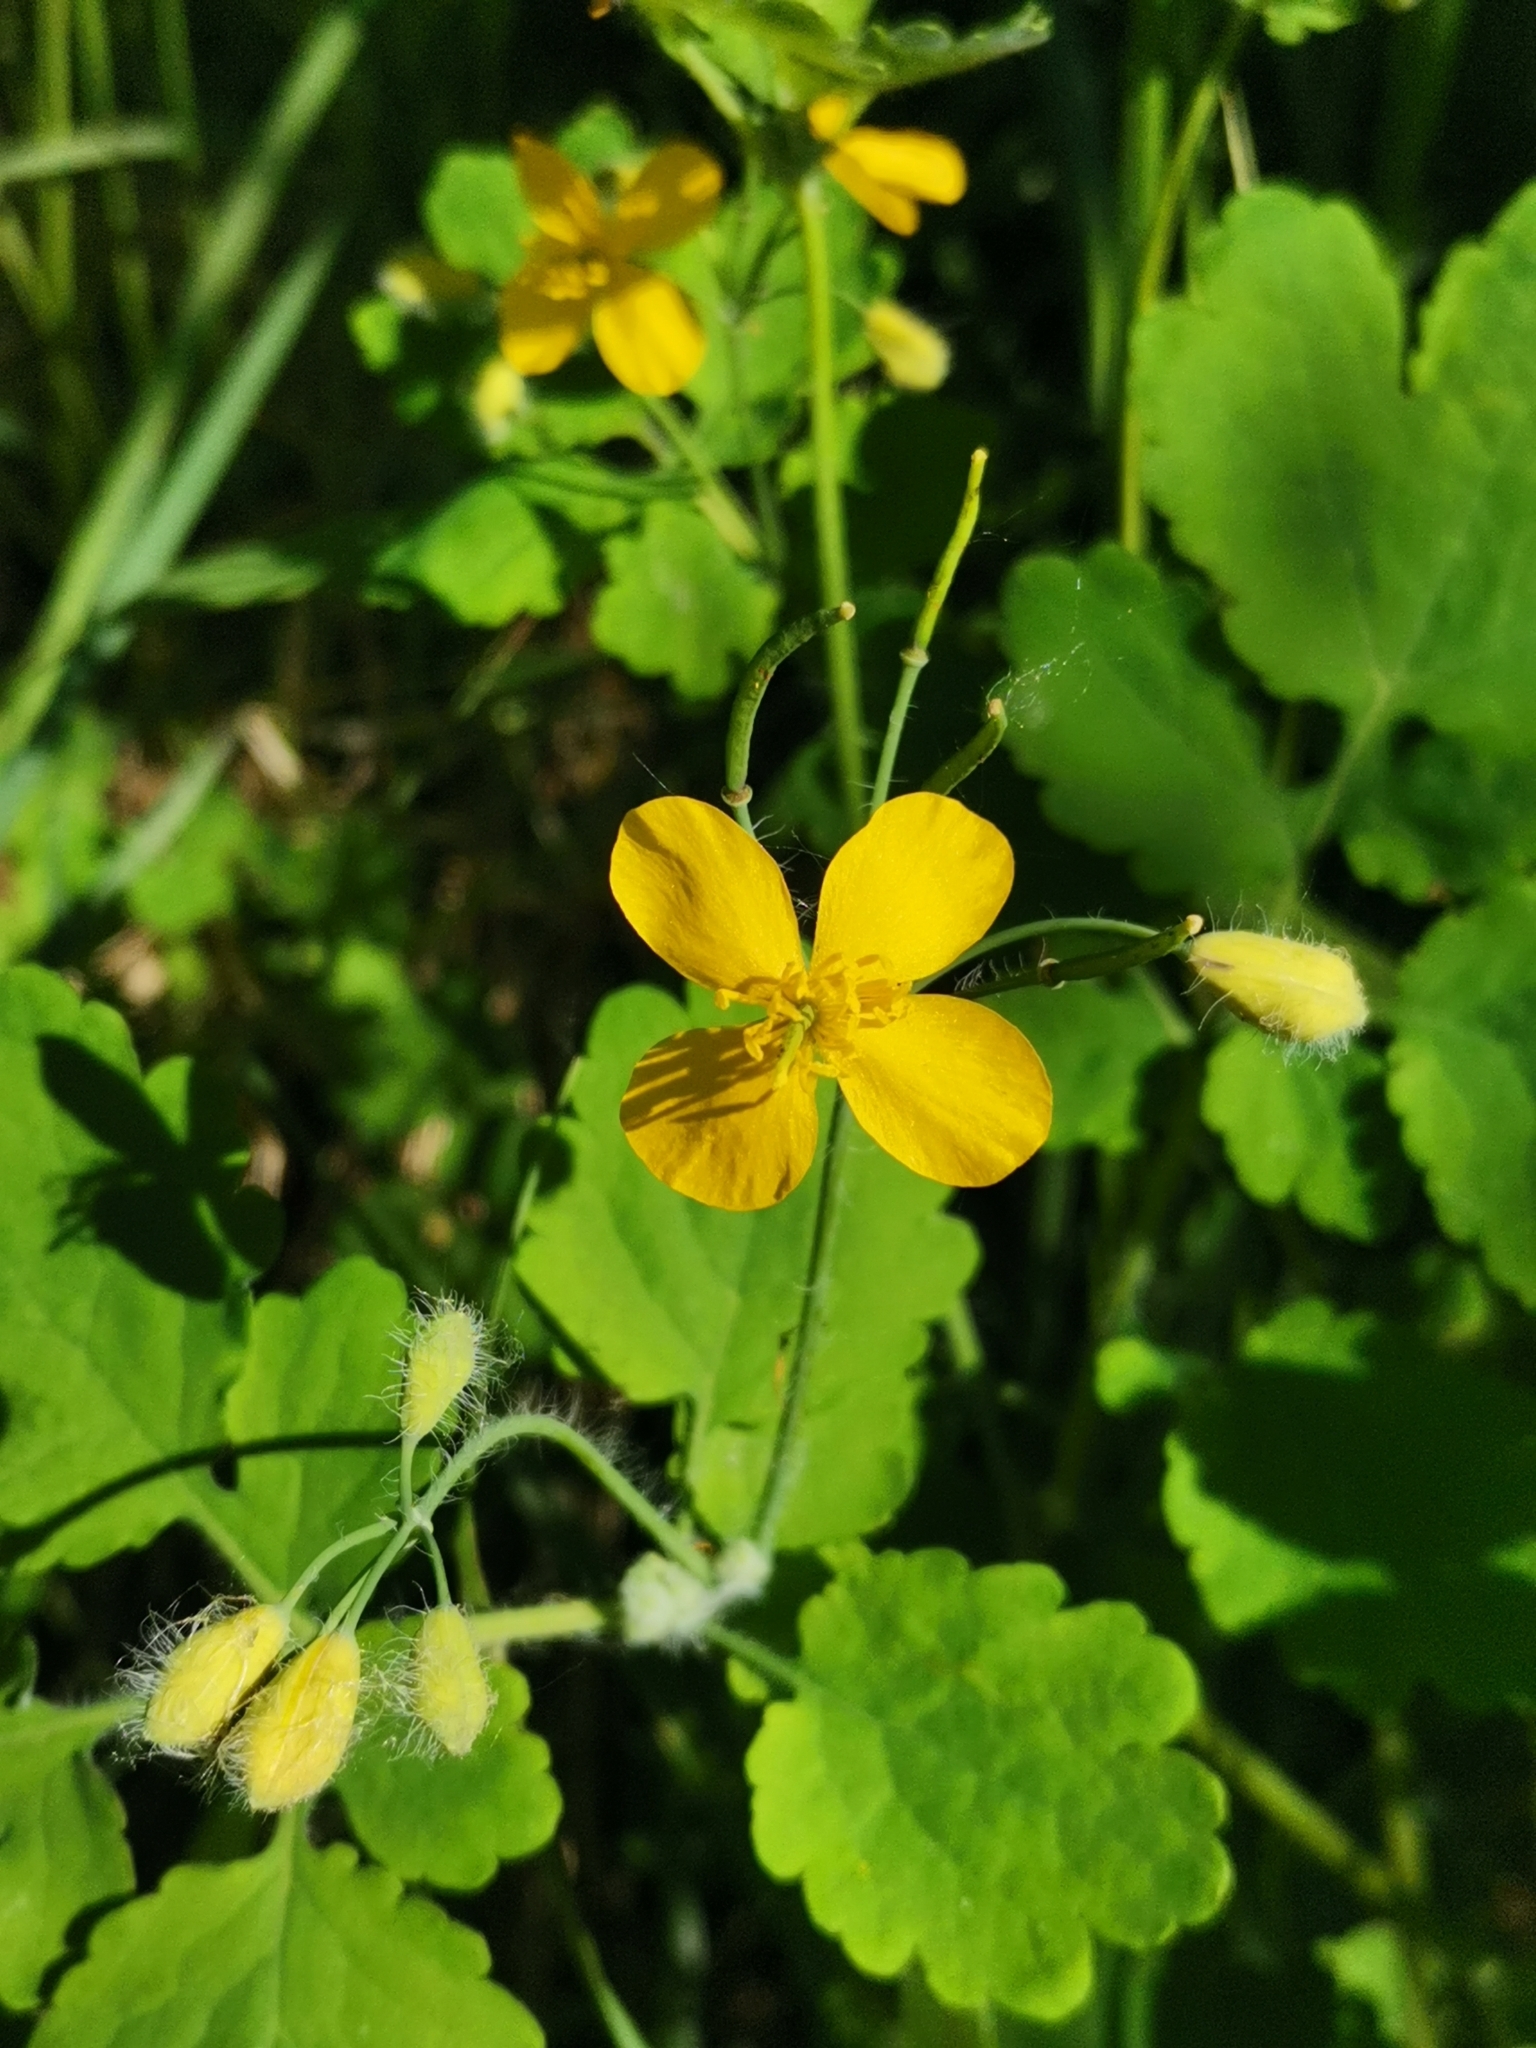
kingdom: Plantae
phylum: Tracheophyta
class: Magnoliopsida
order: Ranunculales
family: Papaveraceae
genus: Chelidonium
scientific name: Chelidonium majus
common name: Greater celandine
